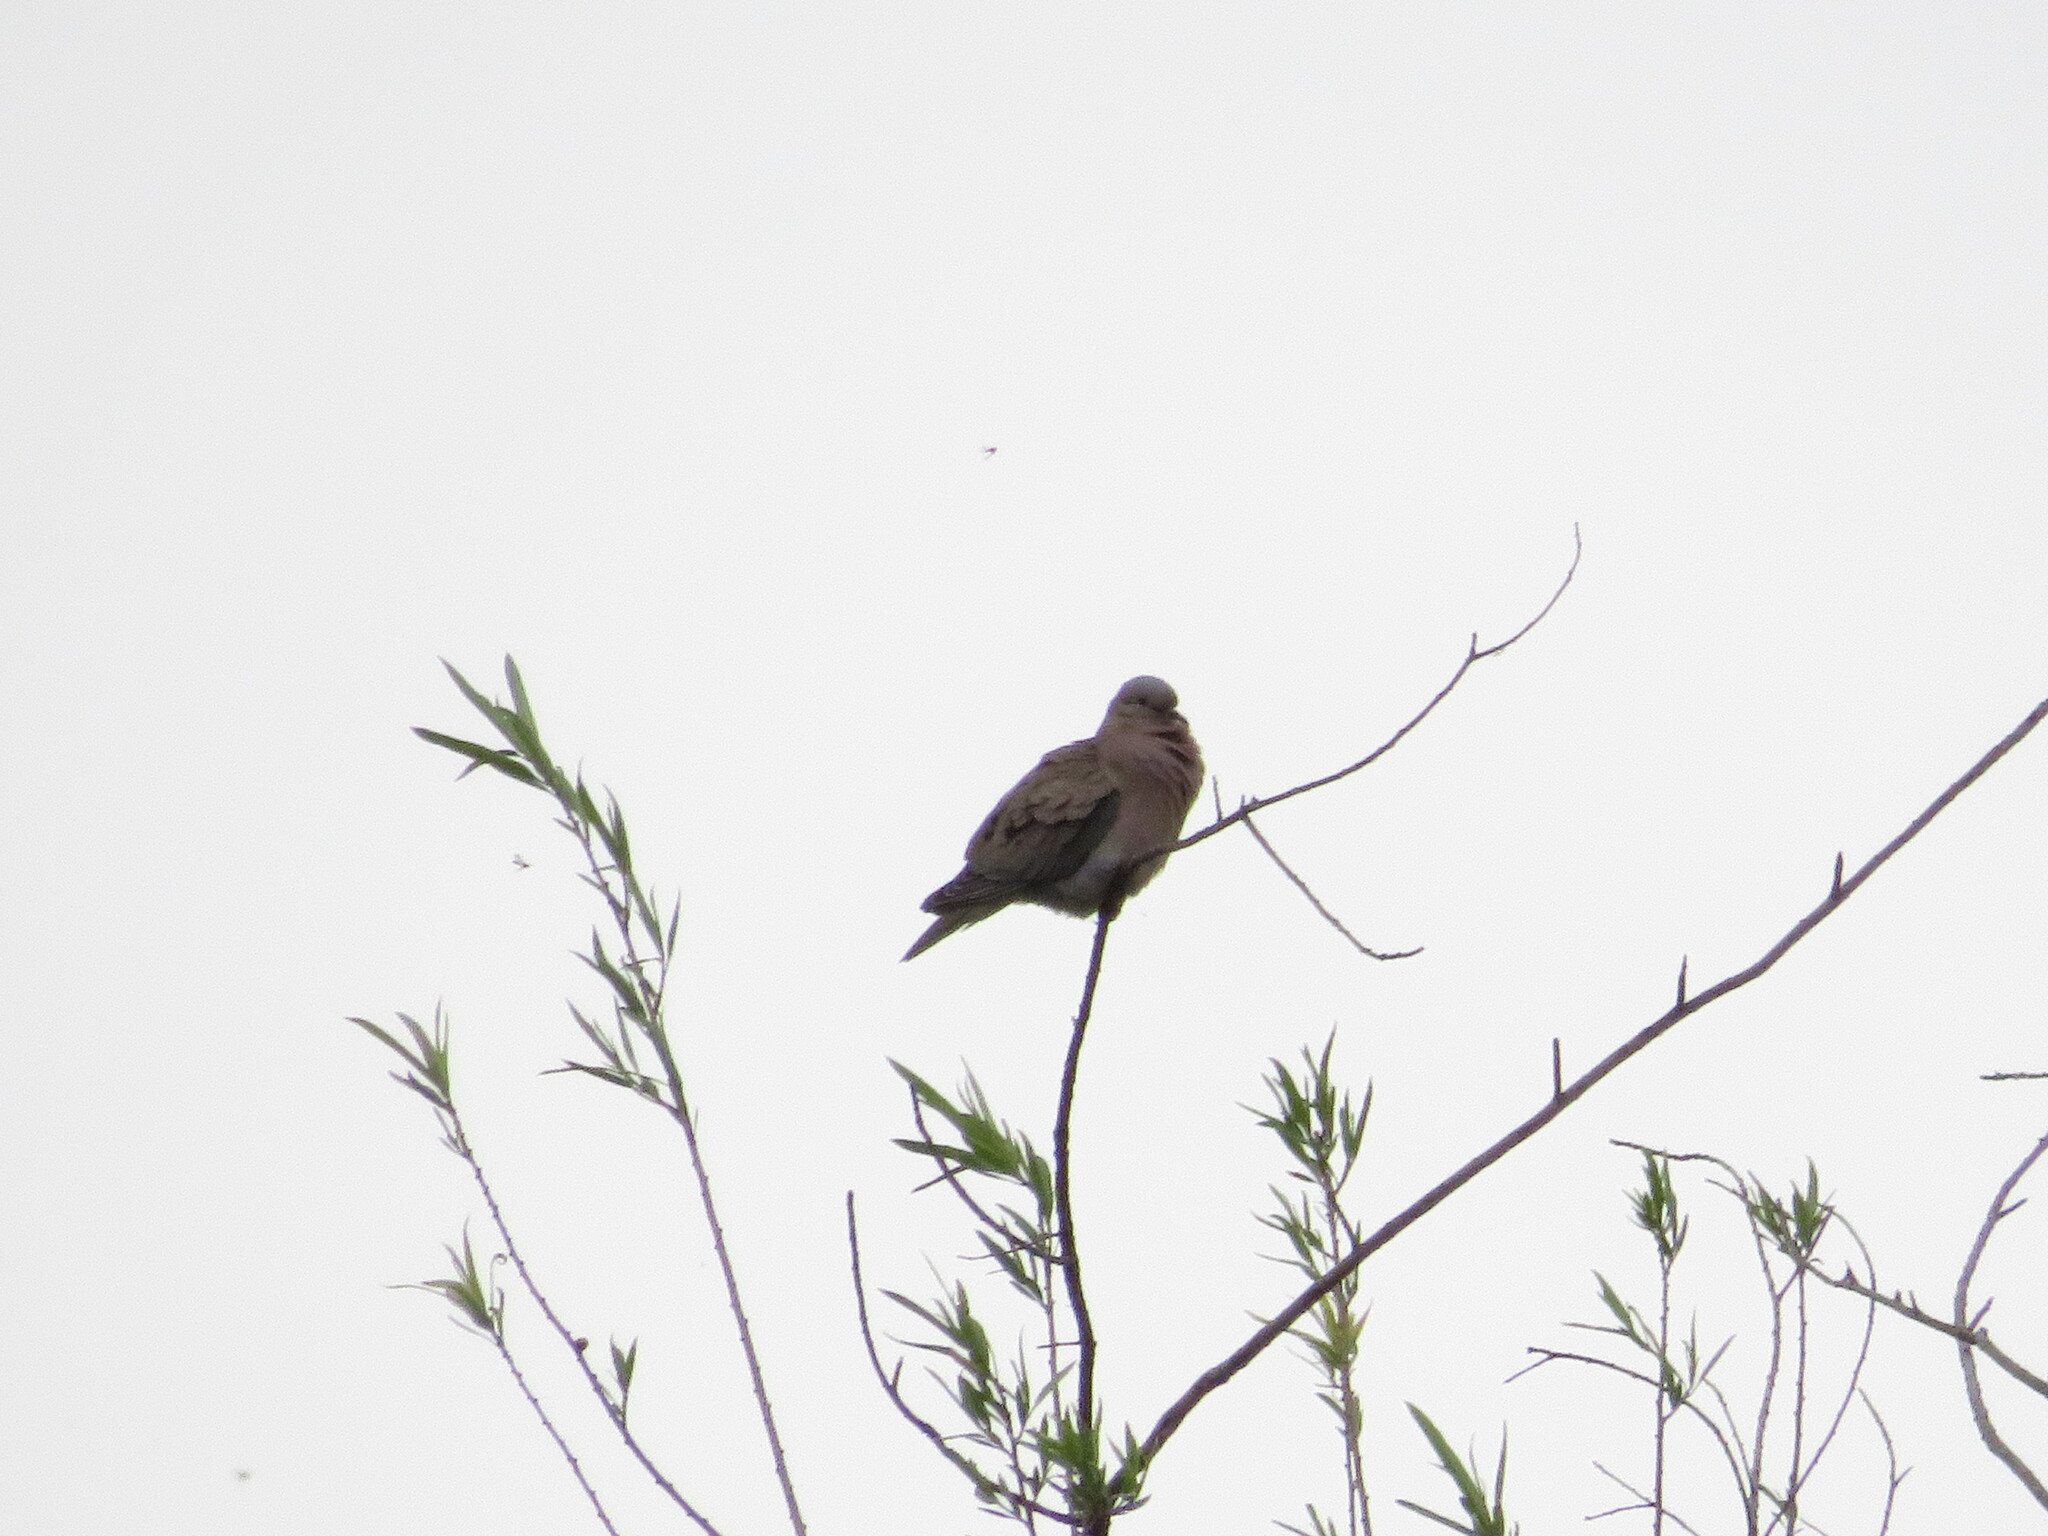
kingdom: Animalia
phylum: Chordata
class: Aves
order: Columbiformes
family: Columbidae
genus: Zenaida
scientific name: Zenaida auriculata
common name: Eared dove
